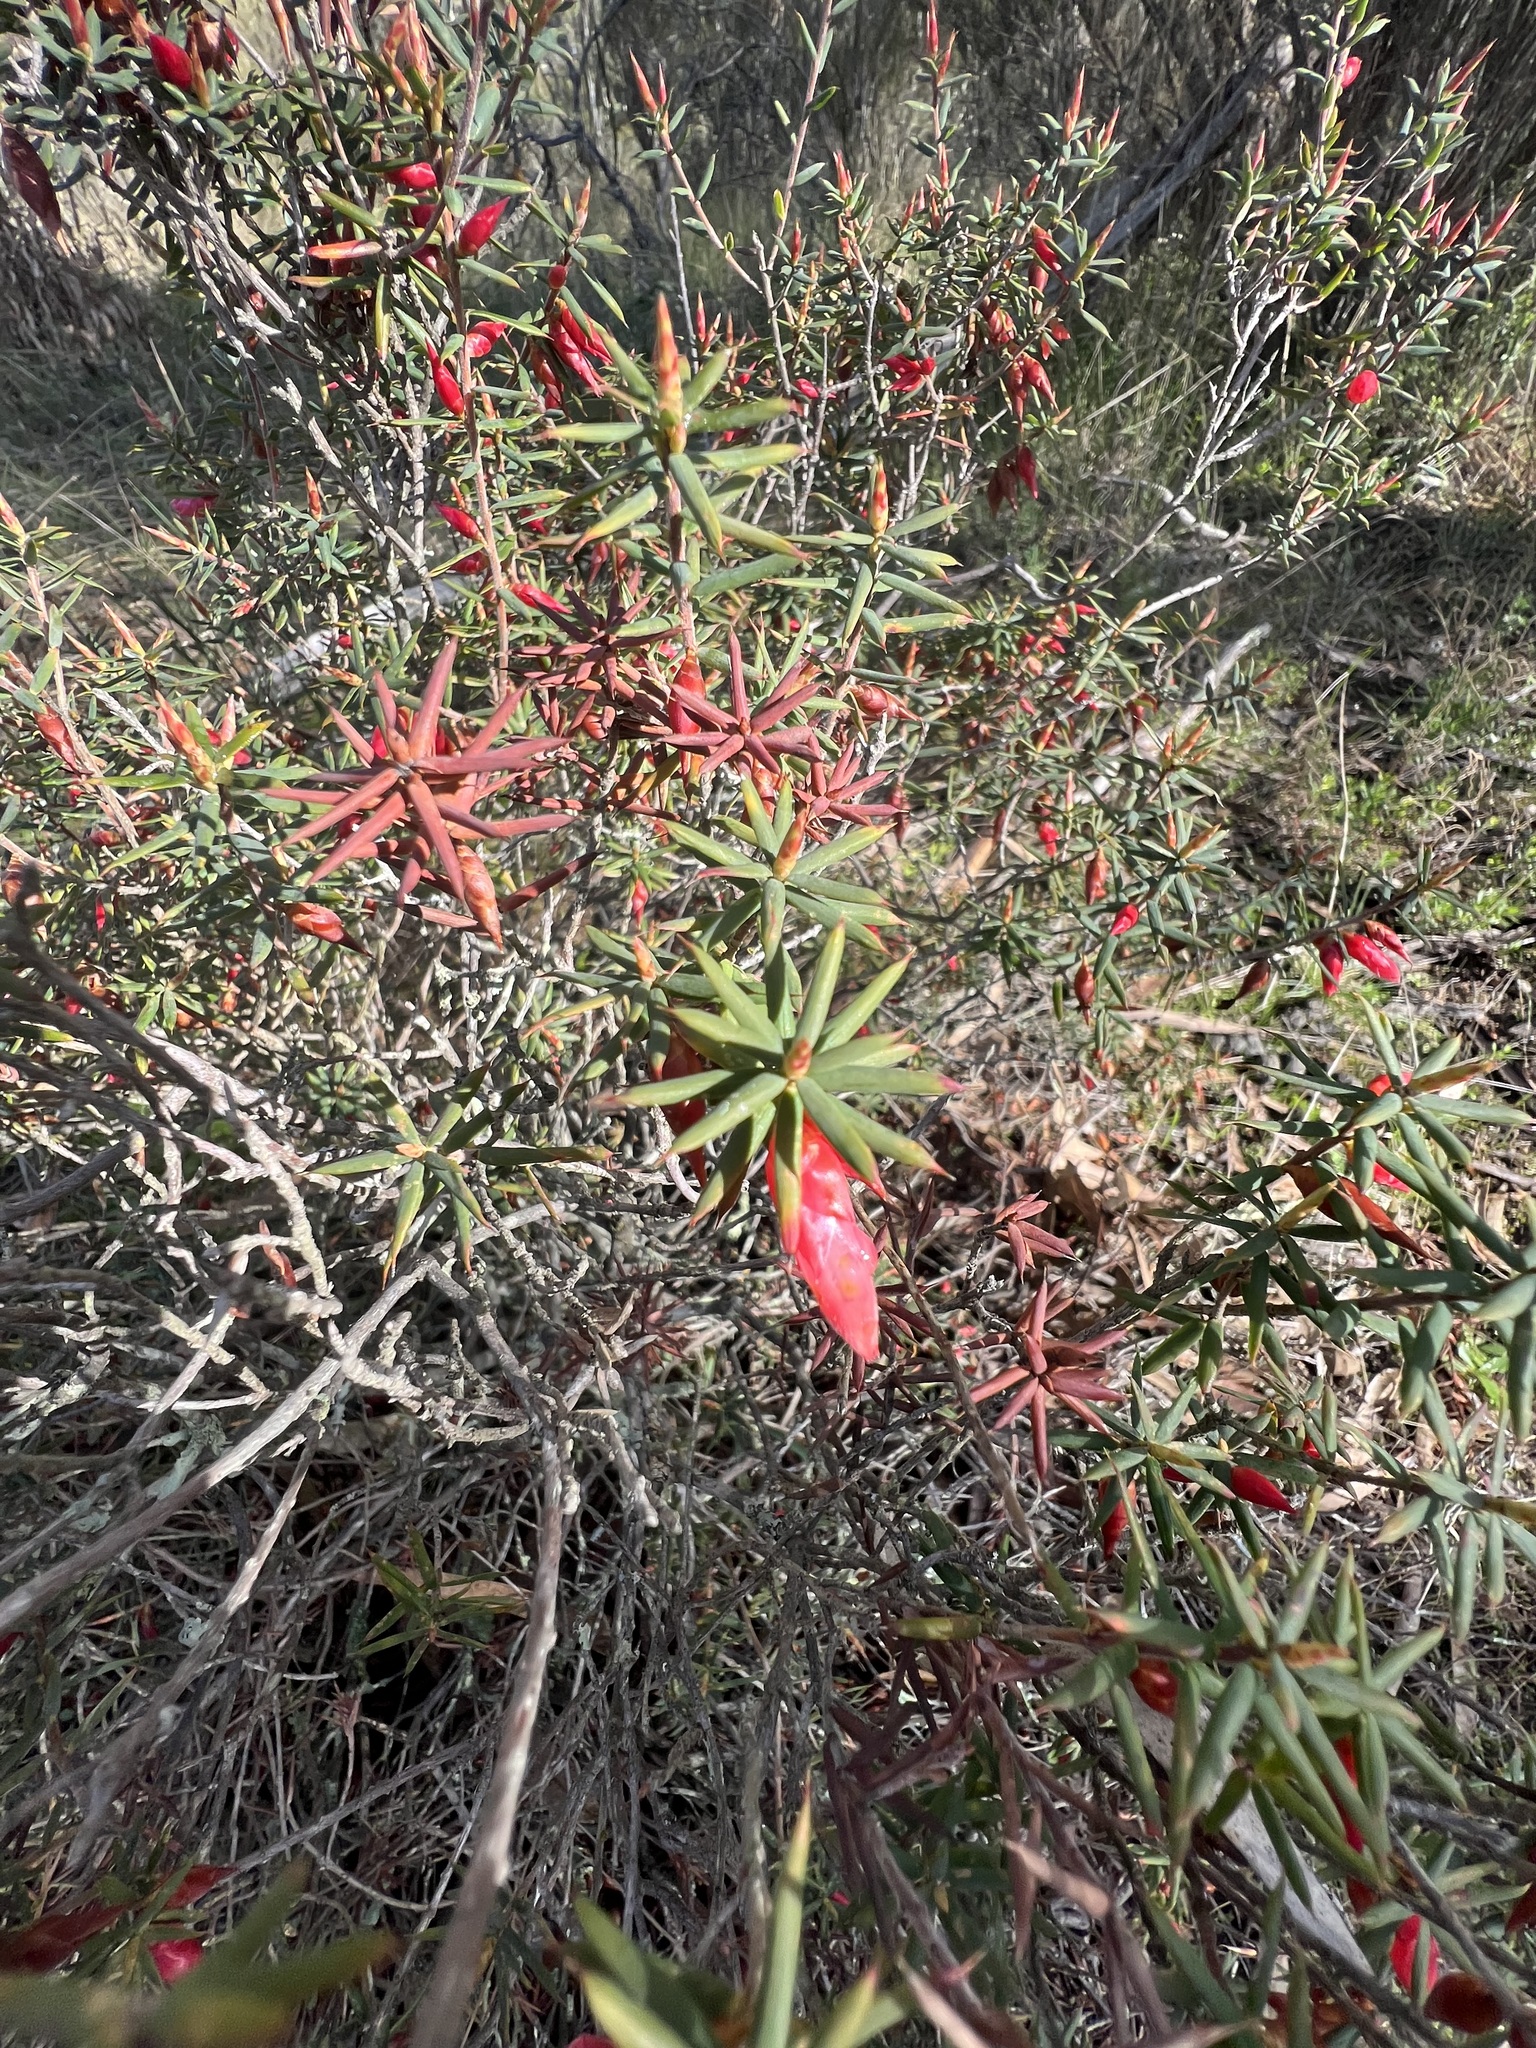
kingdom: Plantae
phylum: Tracheophyta
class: Magnoliopsida
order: Ericales
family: Ericaceae
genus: Stenanthera
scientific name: Stenanthera conostephioides
